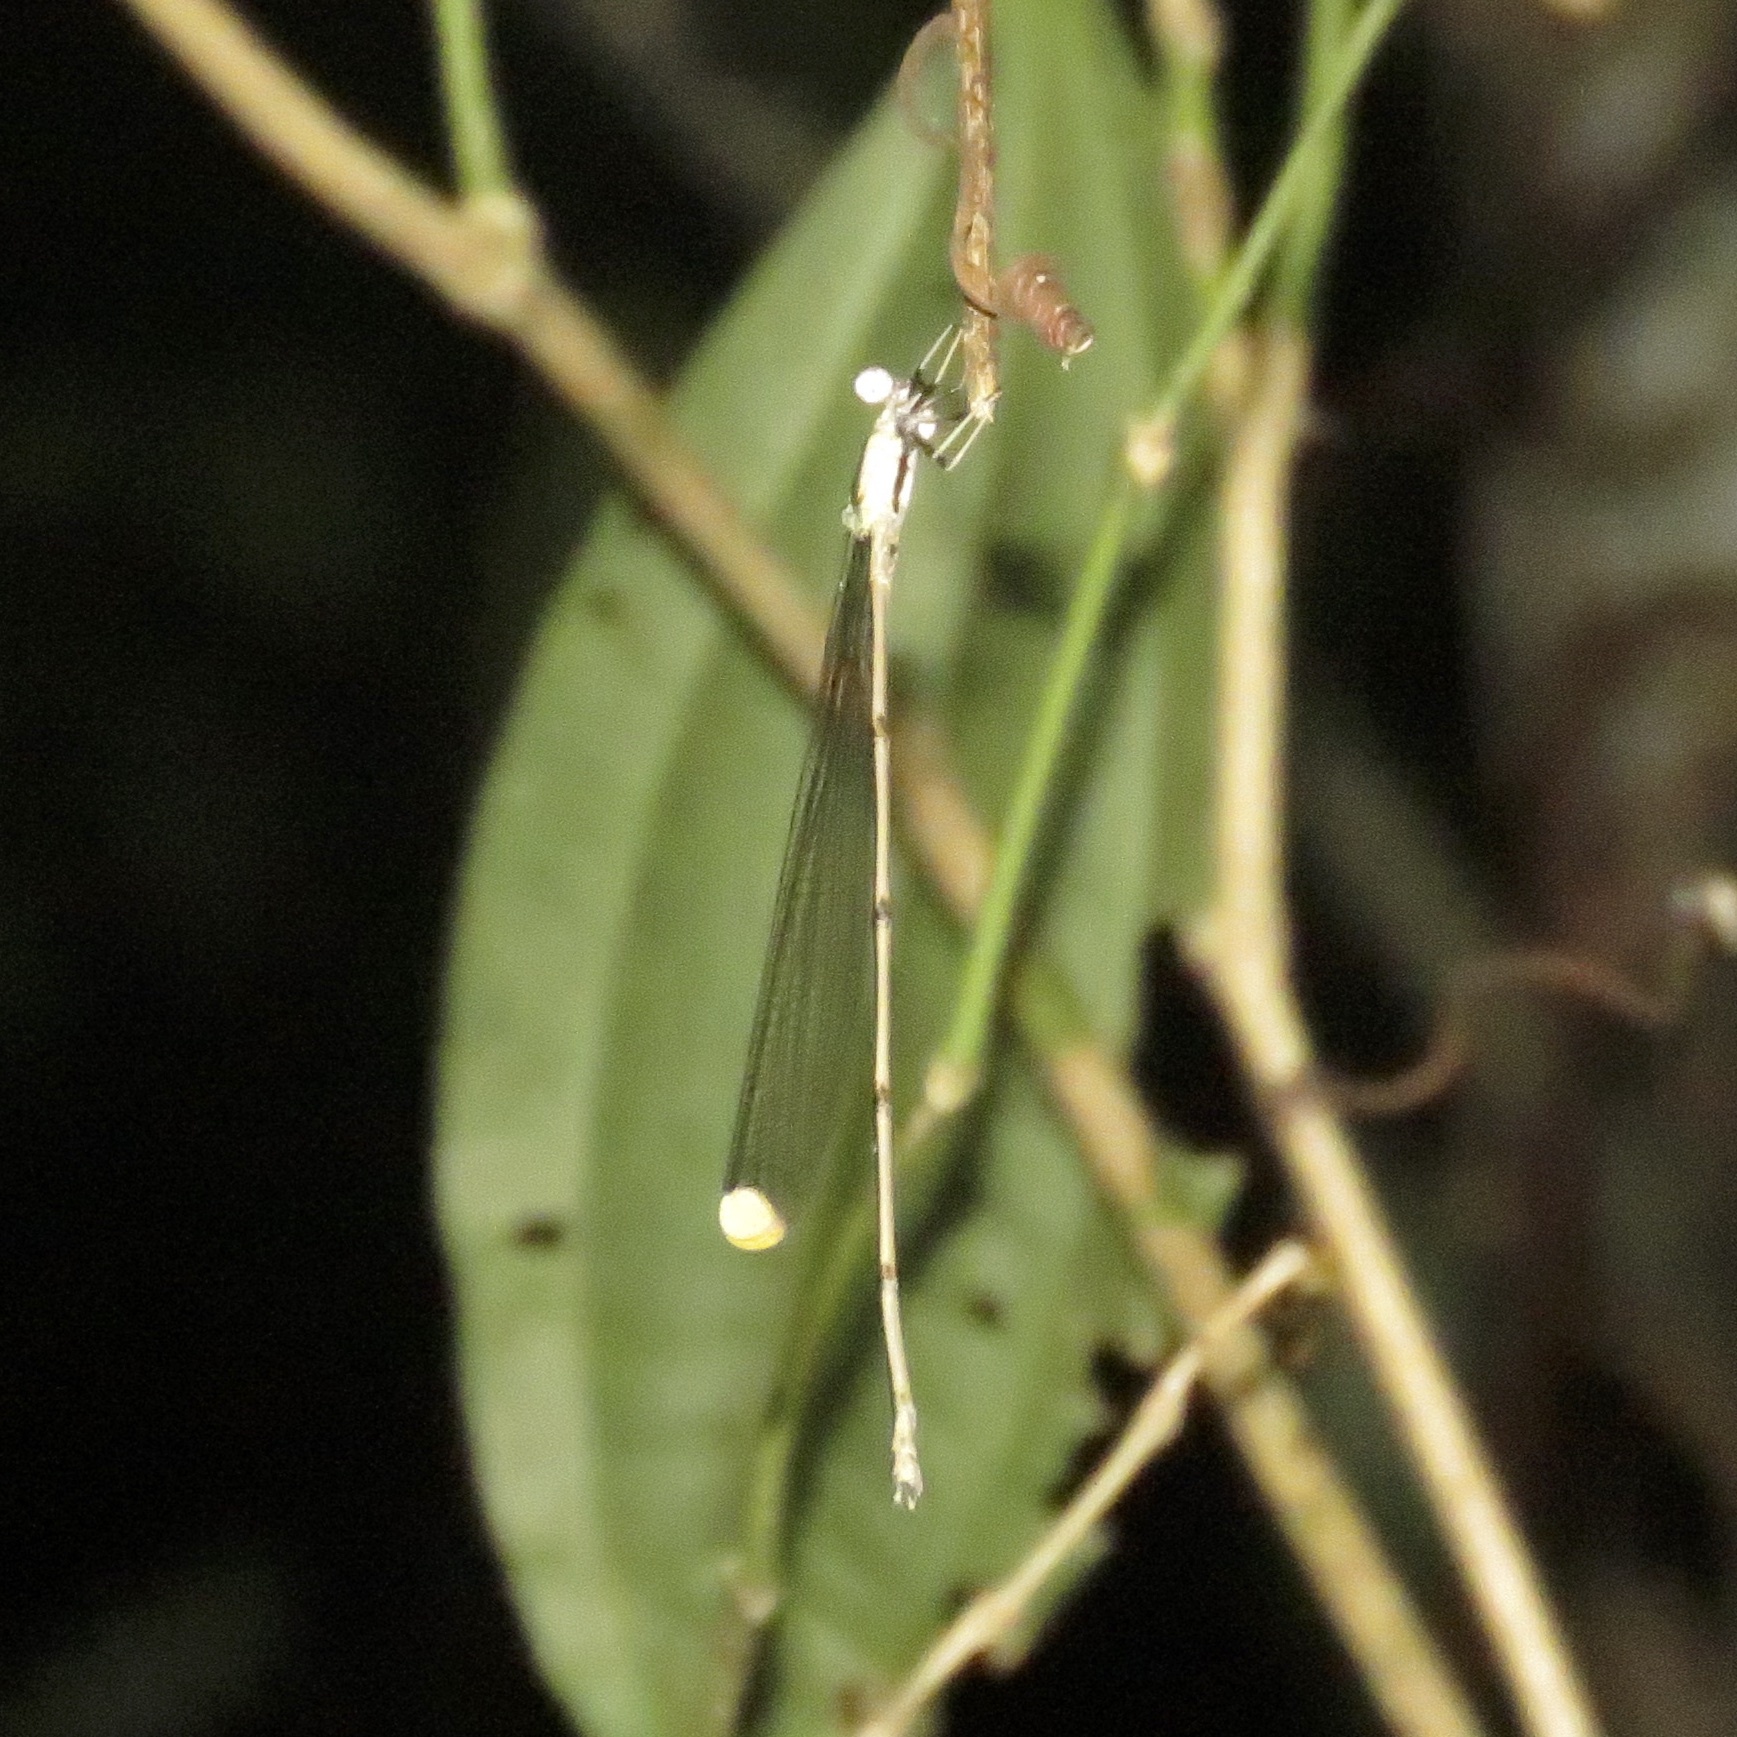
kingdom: Animalia
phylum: Arthropoda
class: Insecta
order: Odonata
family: Coenagrionidae
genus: Mecistogaster
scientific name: Mecistogaster ornata
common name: Ornate helicopter
